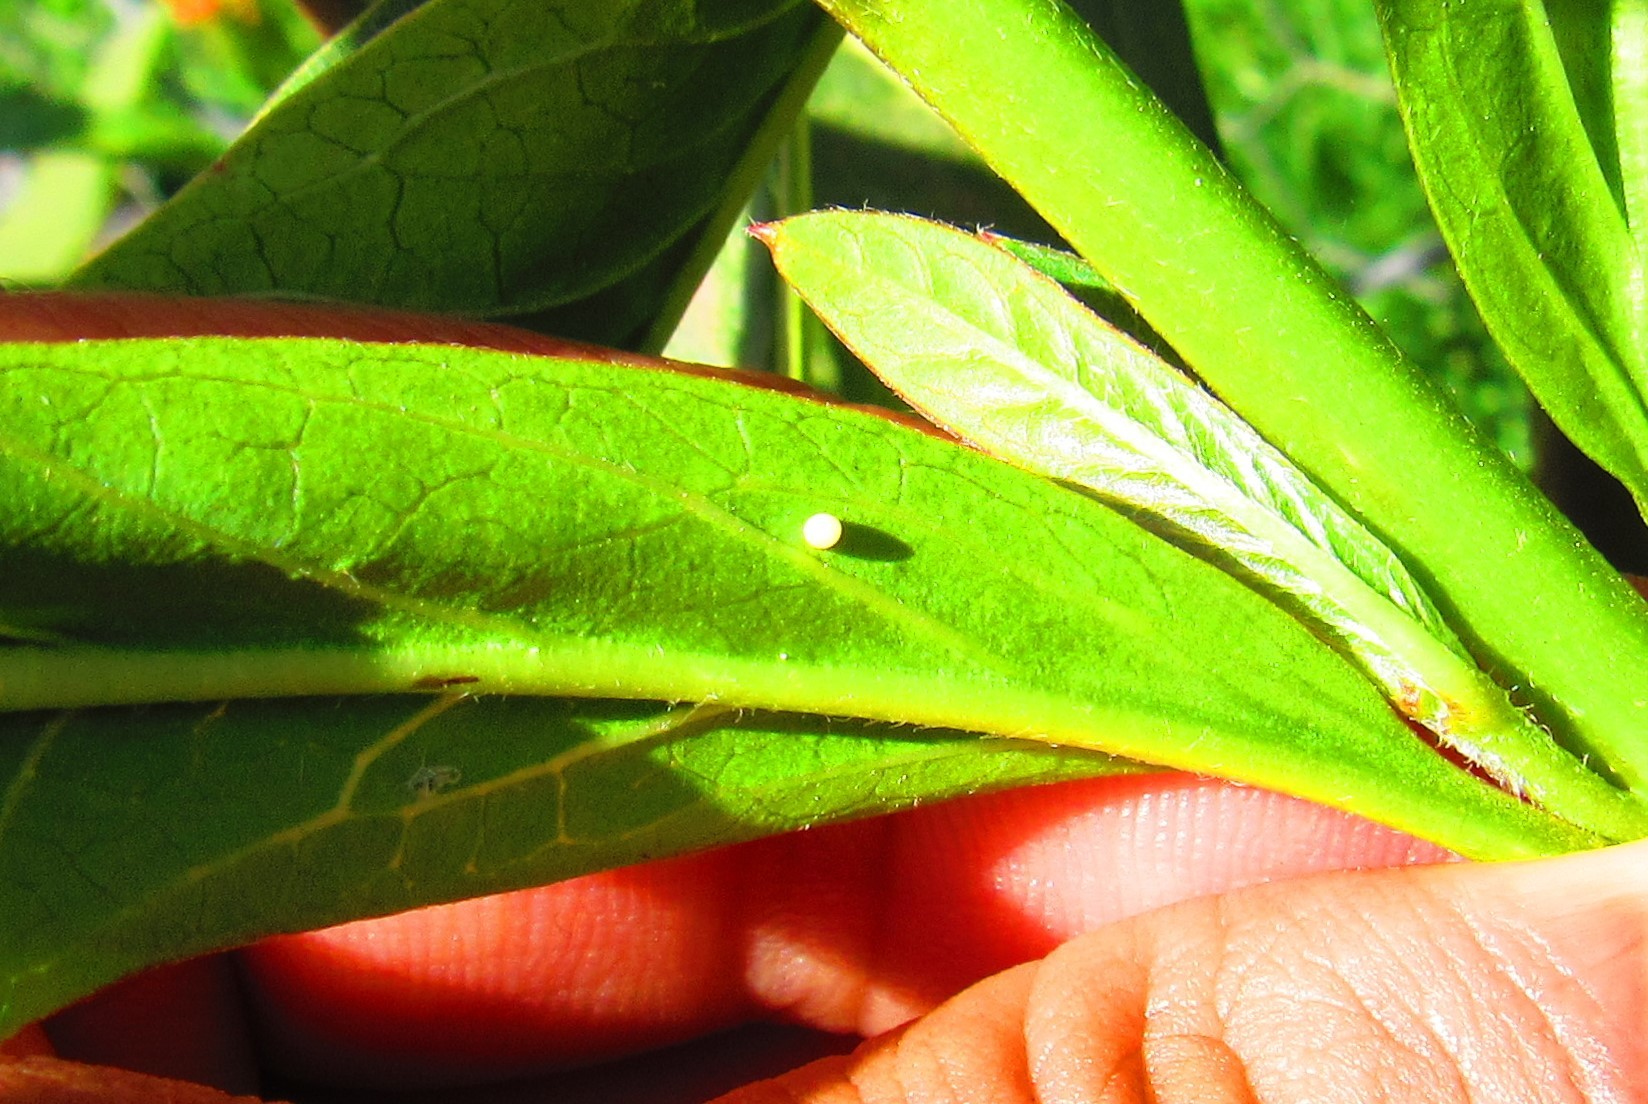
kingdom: Animalia
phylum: Arthropoda
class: Insecta
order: Lepidoptera
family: Nymphalidae
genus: Danaus
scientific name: Danaus plexippus
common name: Monarch
